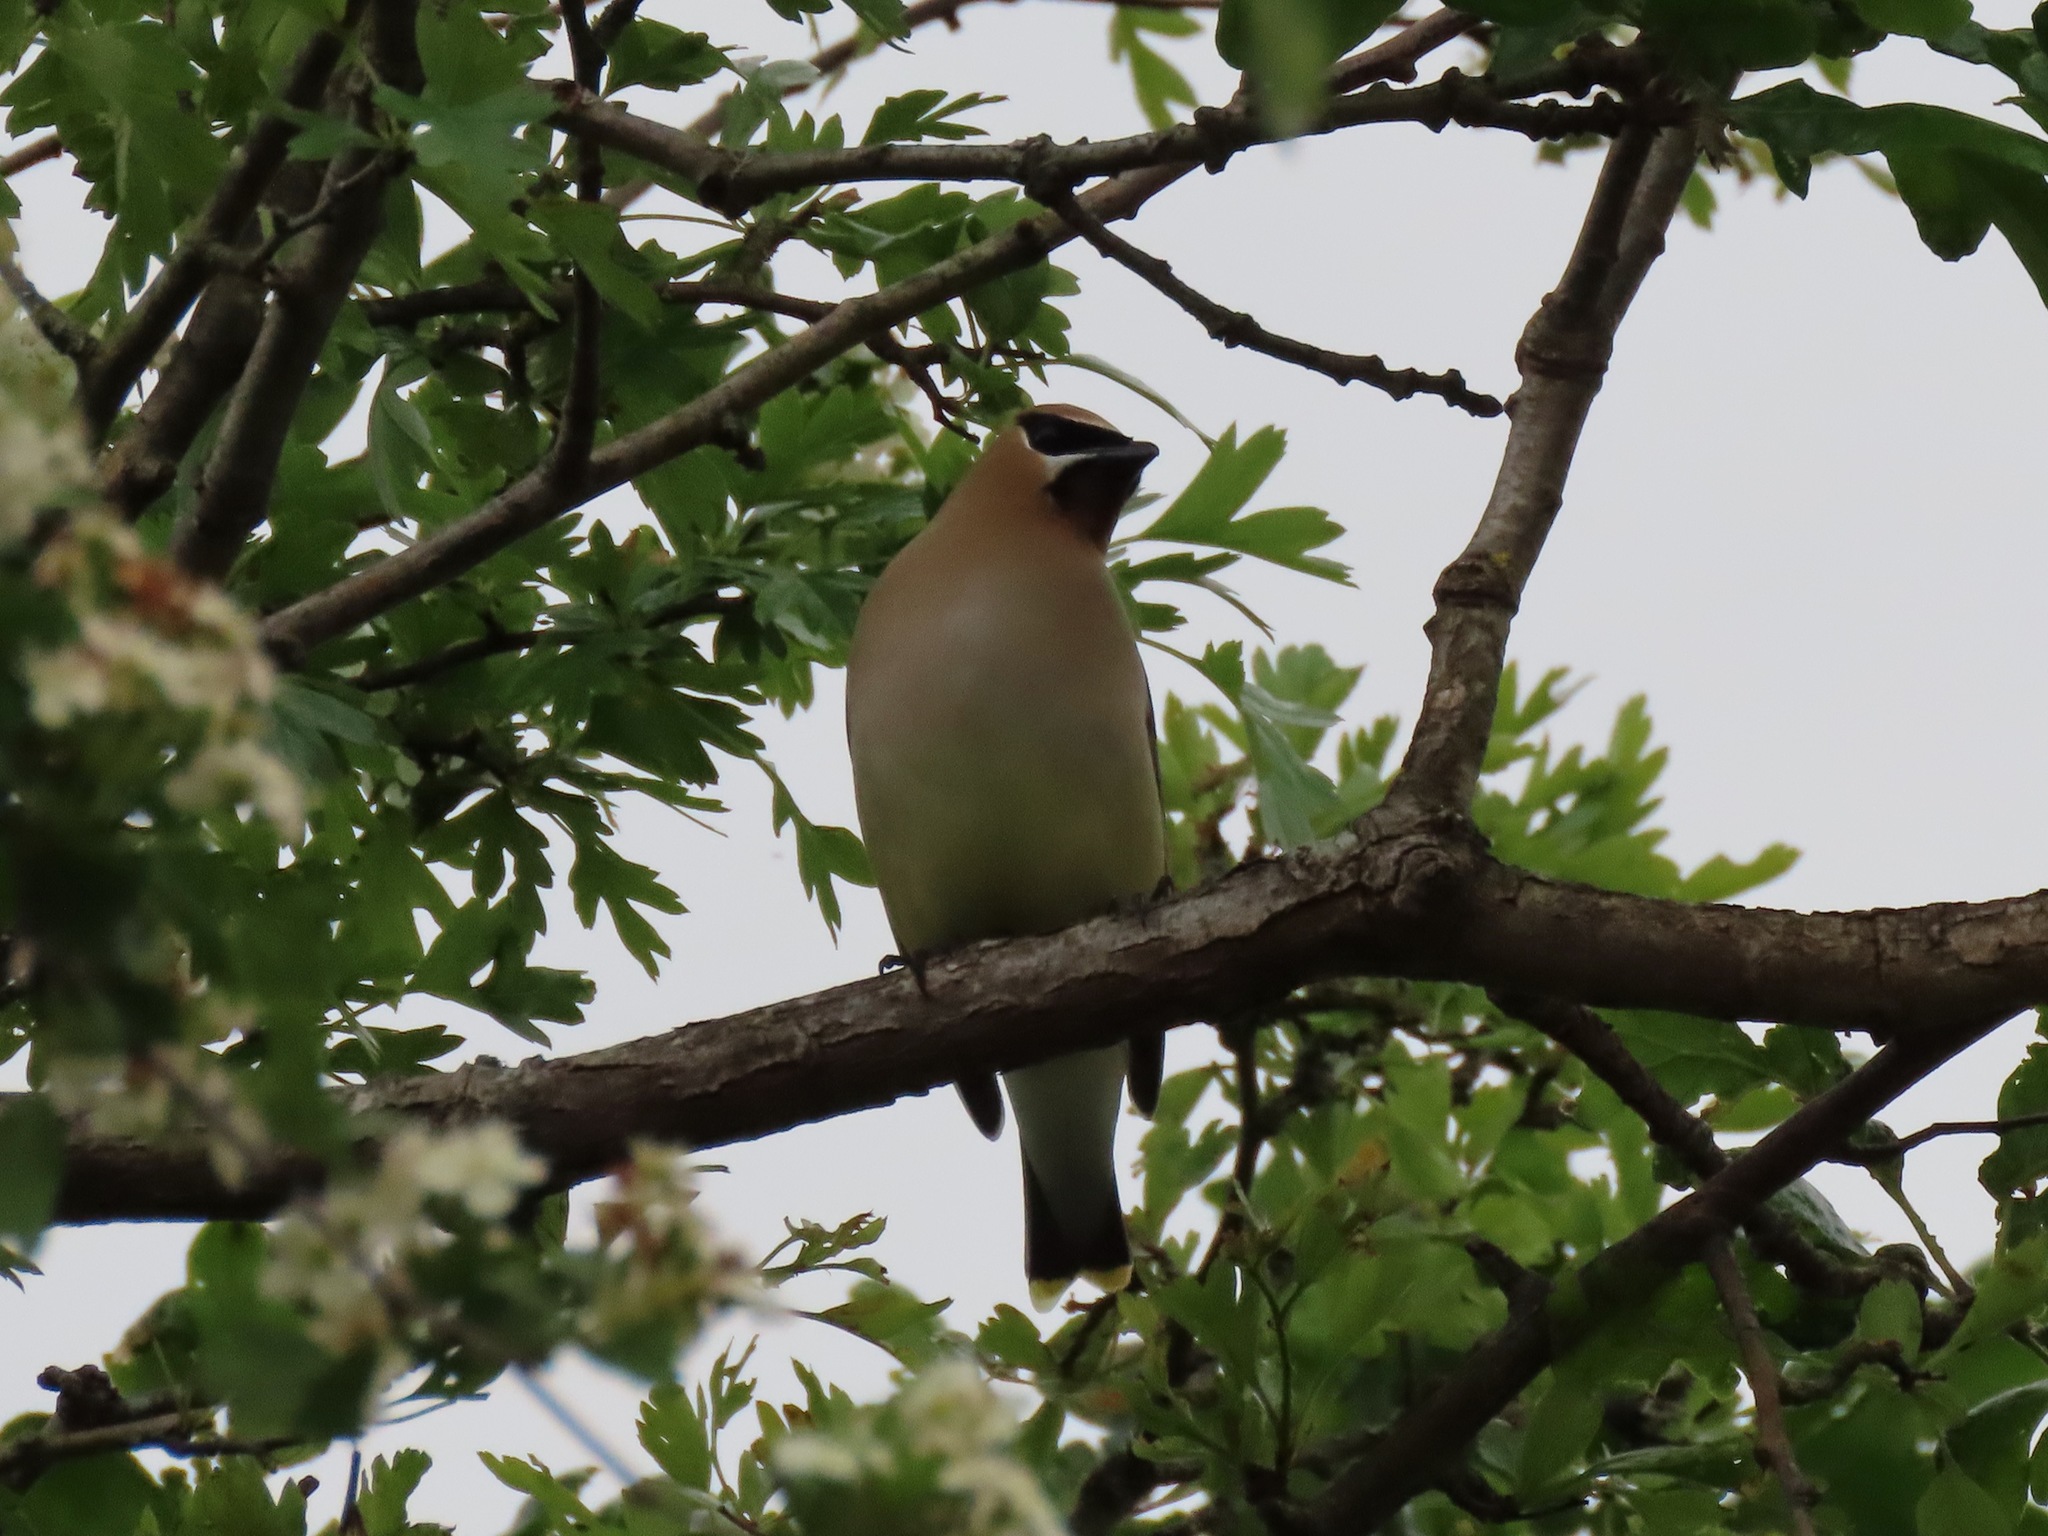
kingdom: Animalia
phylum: Chordata
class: Aves
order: Passeriformes
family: Bombycillidae
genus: Bombycilla
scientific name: Bombycilla cedrorum
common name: Cedar waxwing
